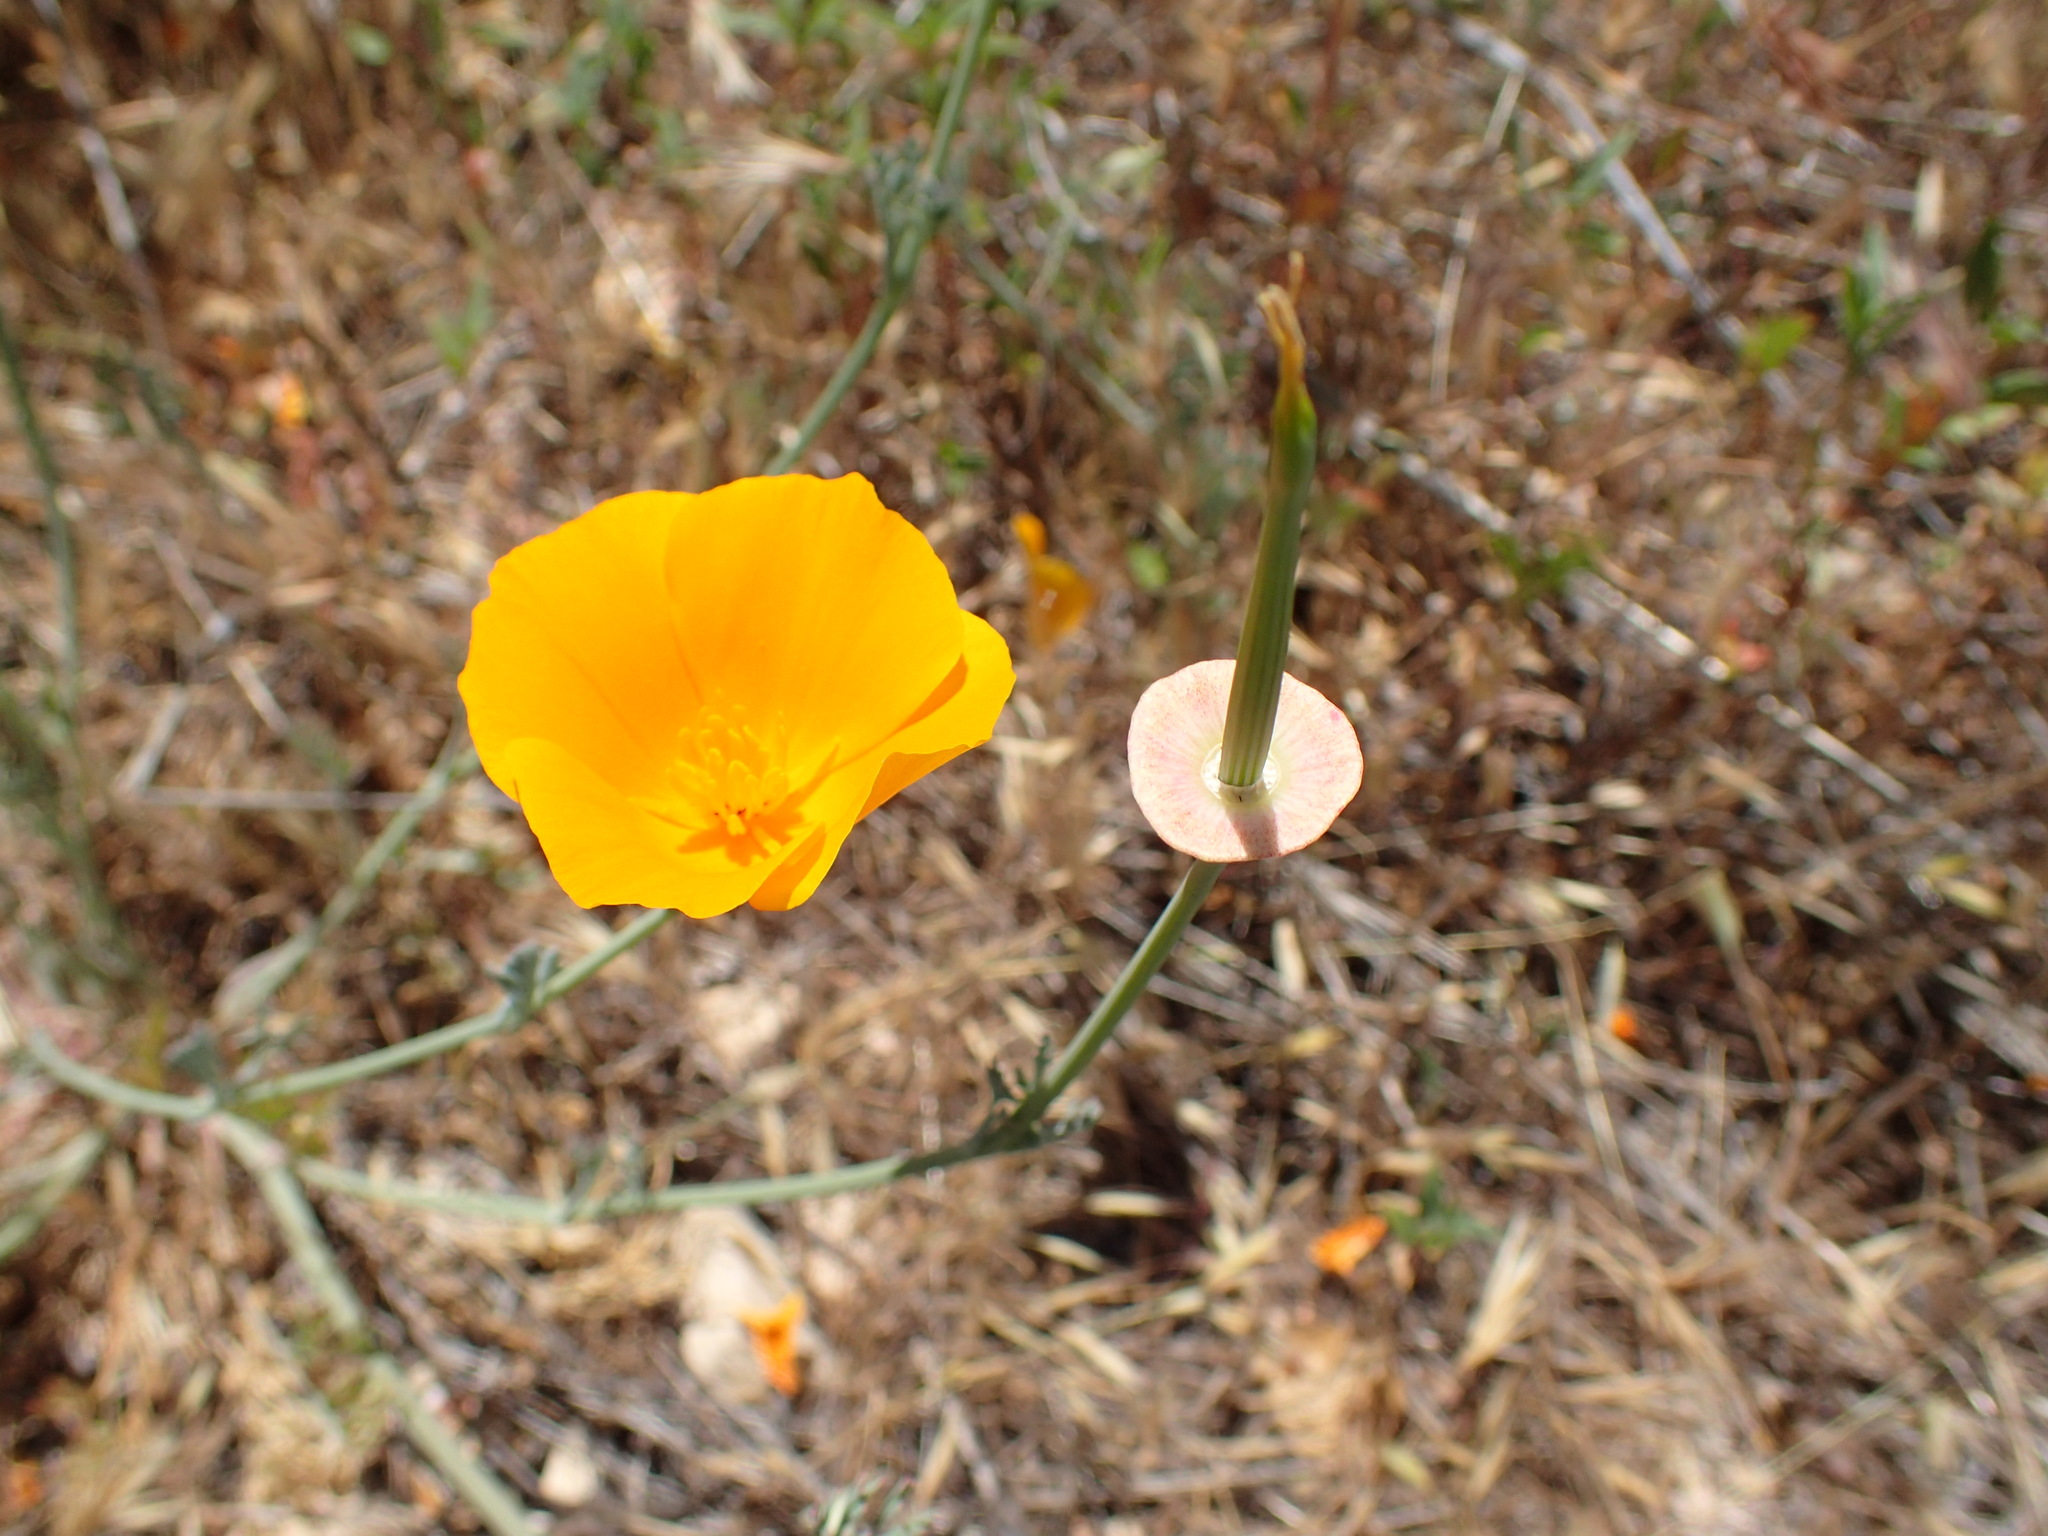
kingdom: Plantae
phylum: Tracheophyta
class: Magnoliopsida
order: Ranunculales
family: Papaveraceae
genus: Eschscholzia
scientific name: Eschscholzia californica
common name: California poppy
